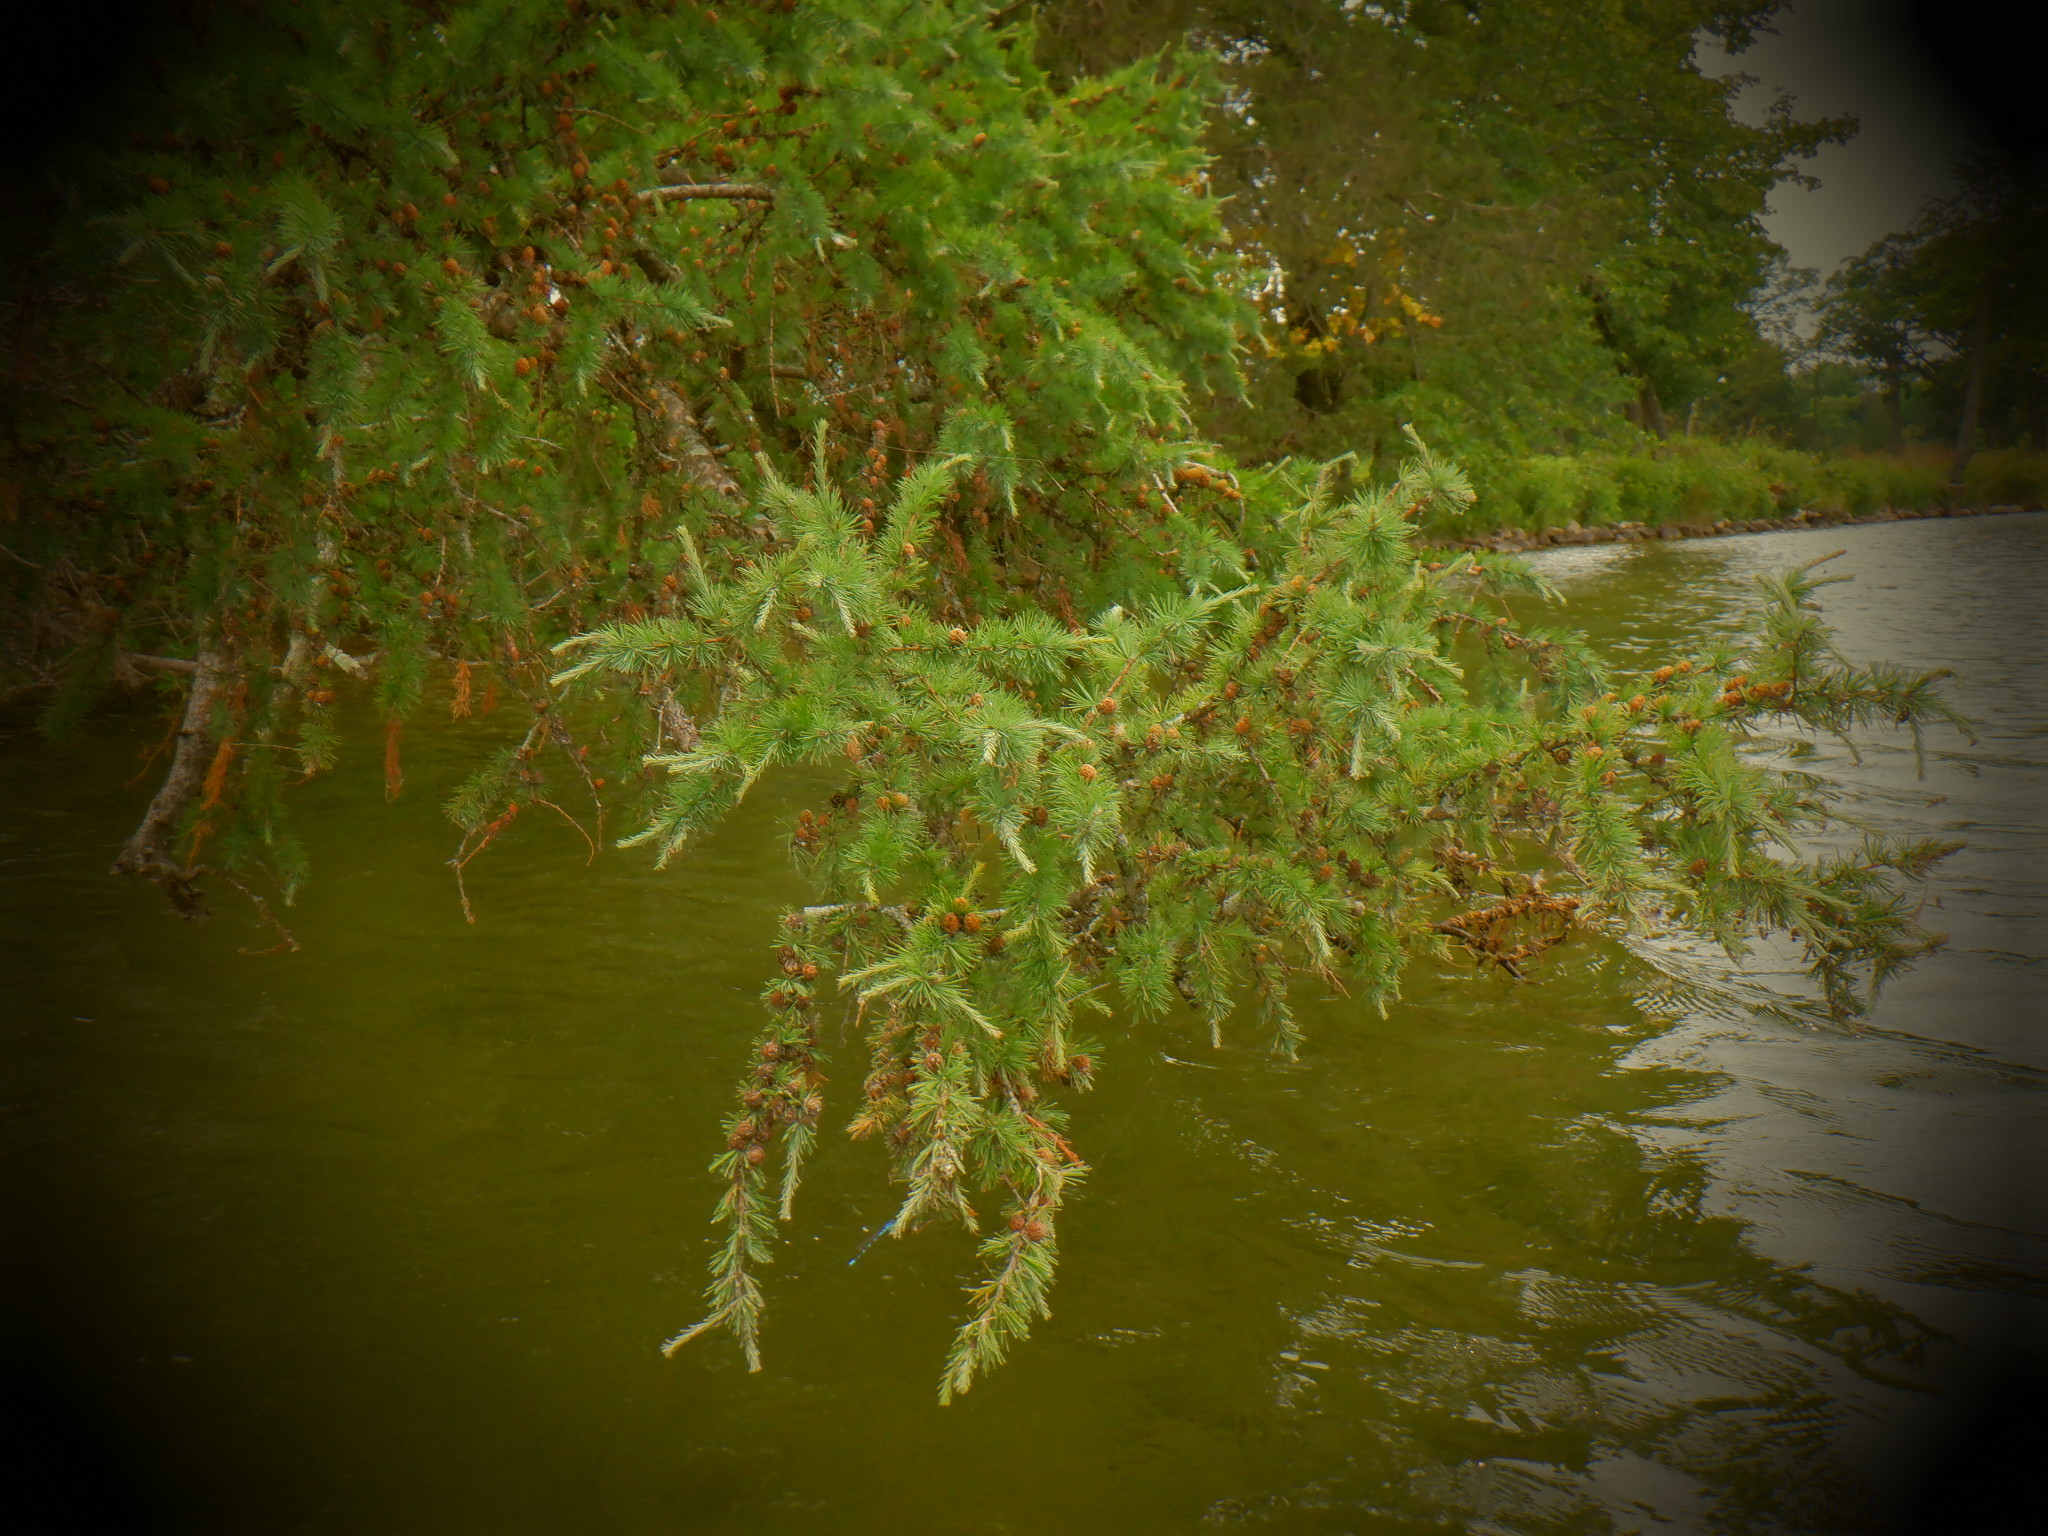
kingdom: Plantae
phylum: Tracheophyta
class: Pinopsida
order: Pinales
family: Pinaceae
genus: Larix
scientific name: Larix decidua
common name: European larch
